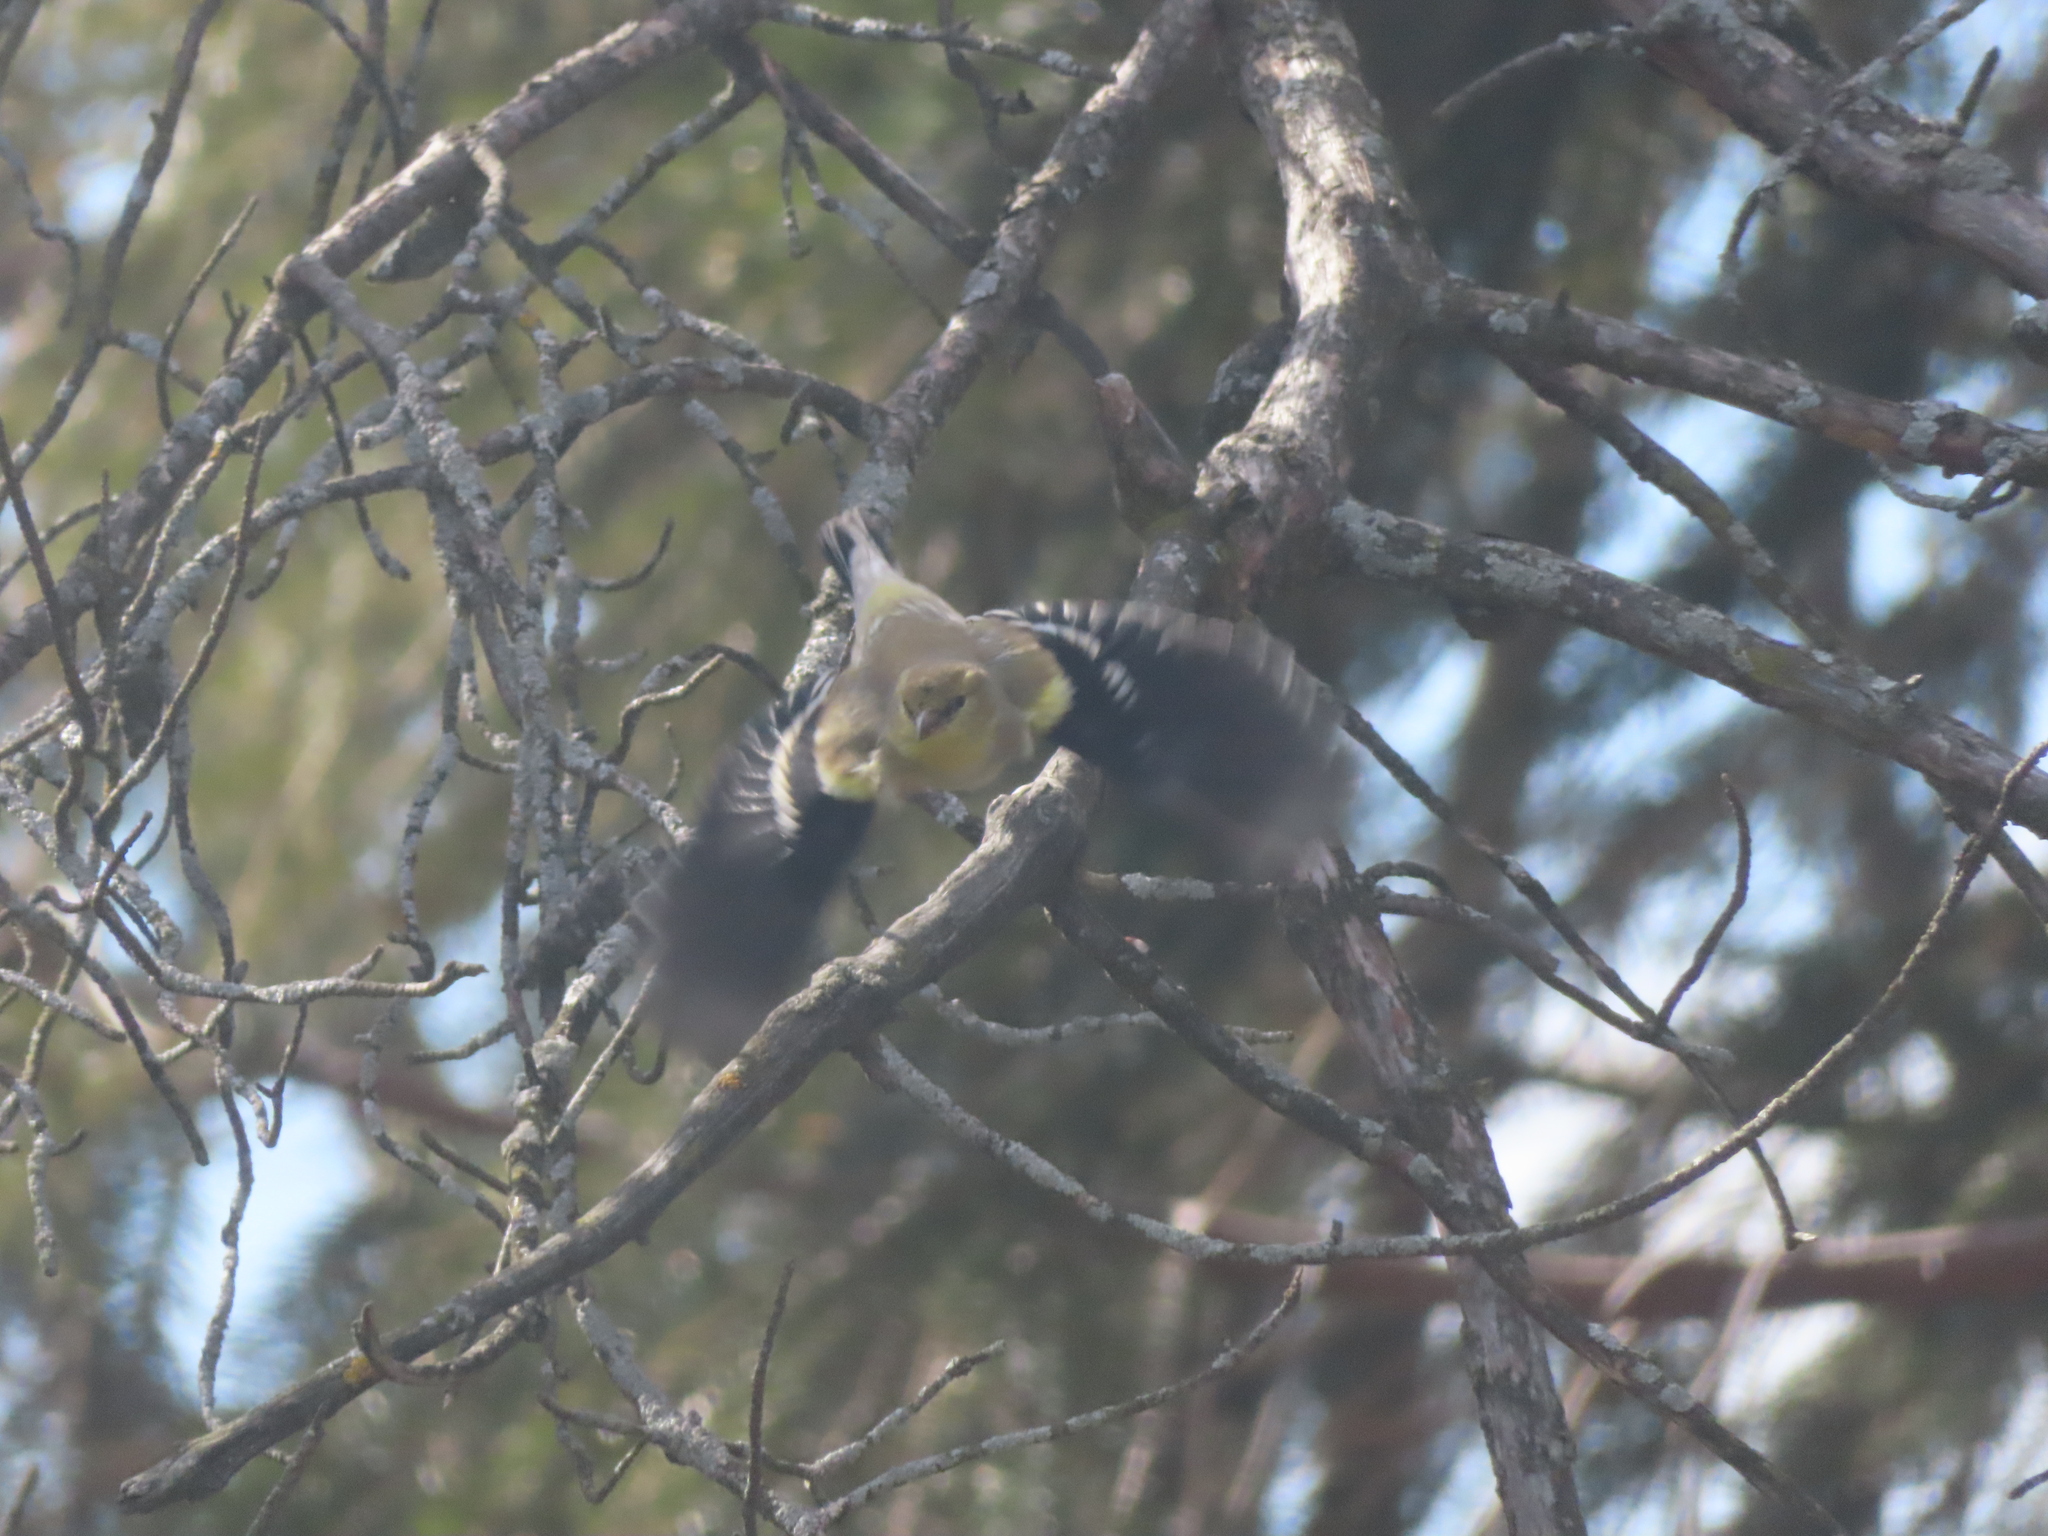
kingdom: Animalia
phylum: Chordata
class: Aves
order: Passeriformes
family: Fringillidae
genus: Spinus
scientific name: Spinus tristis
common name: American goldfinch
